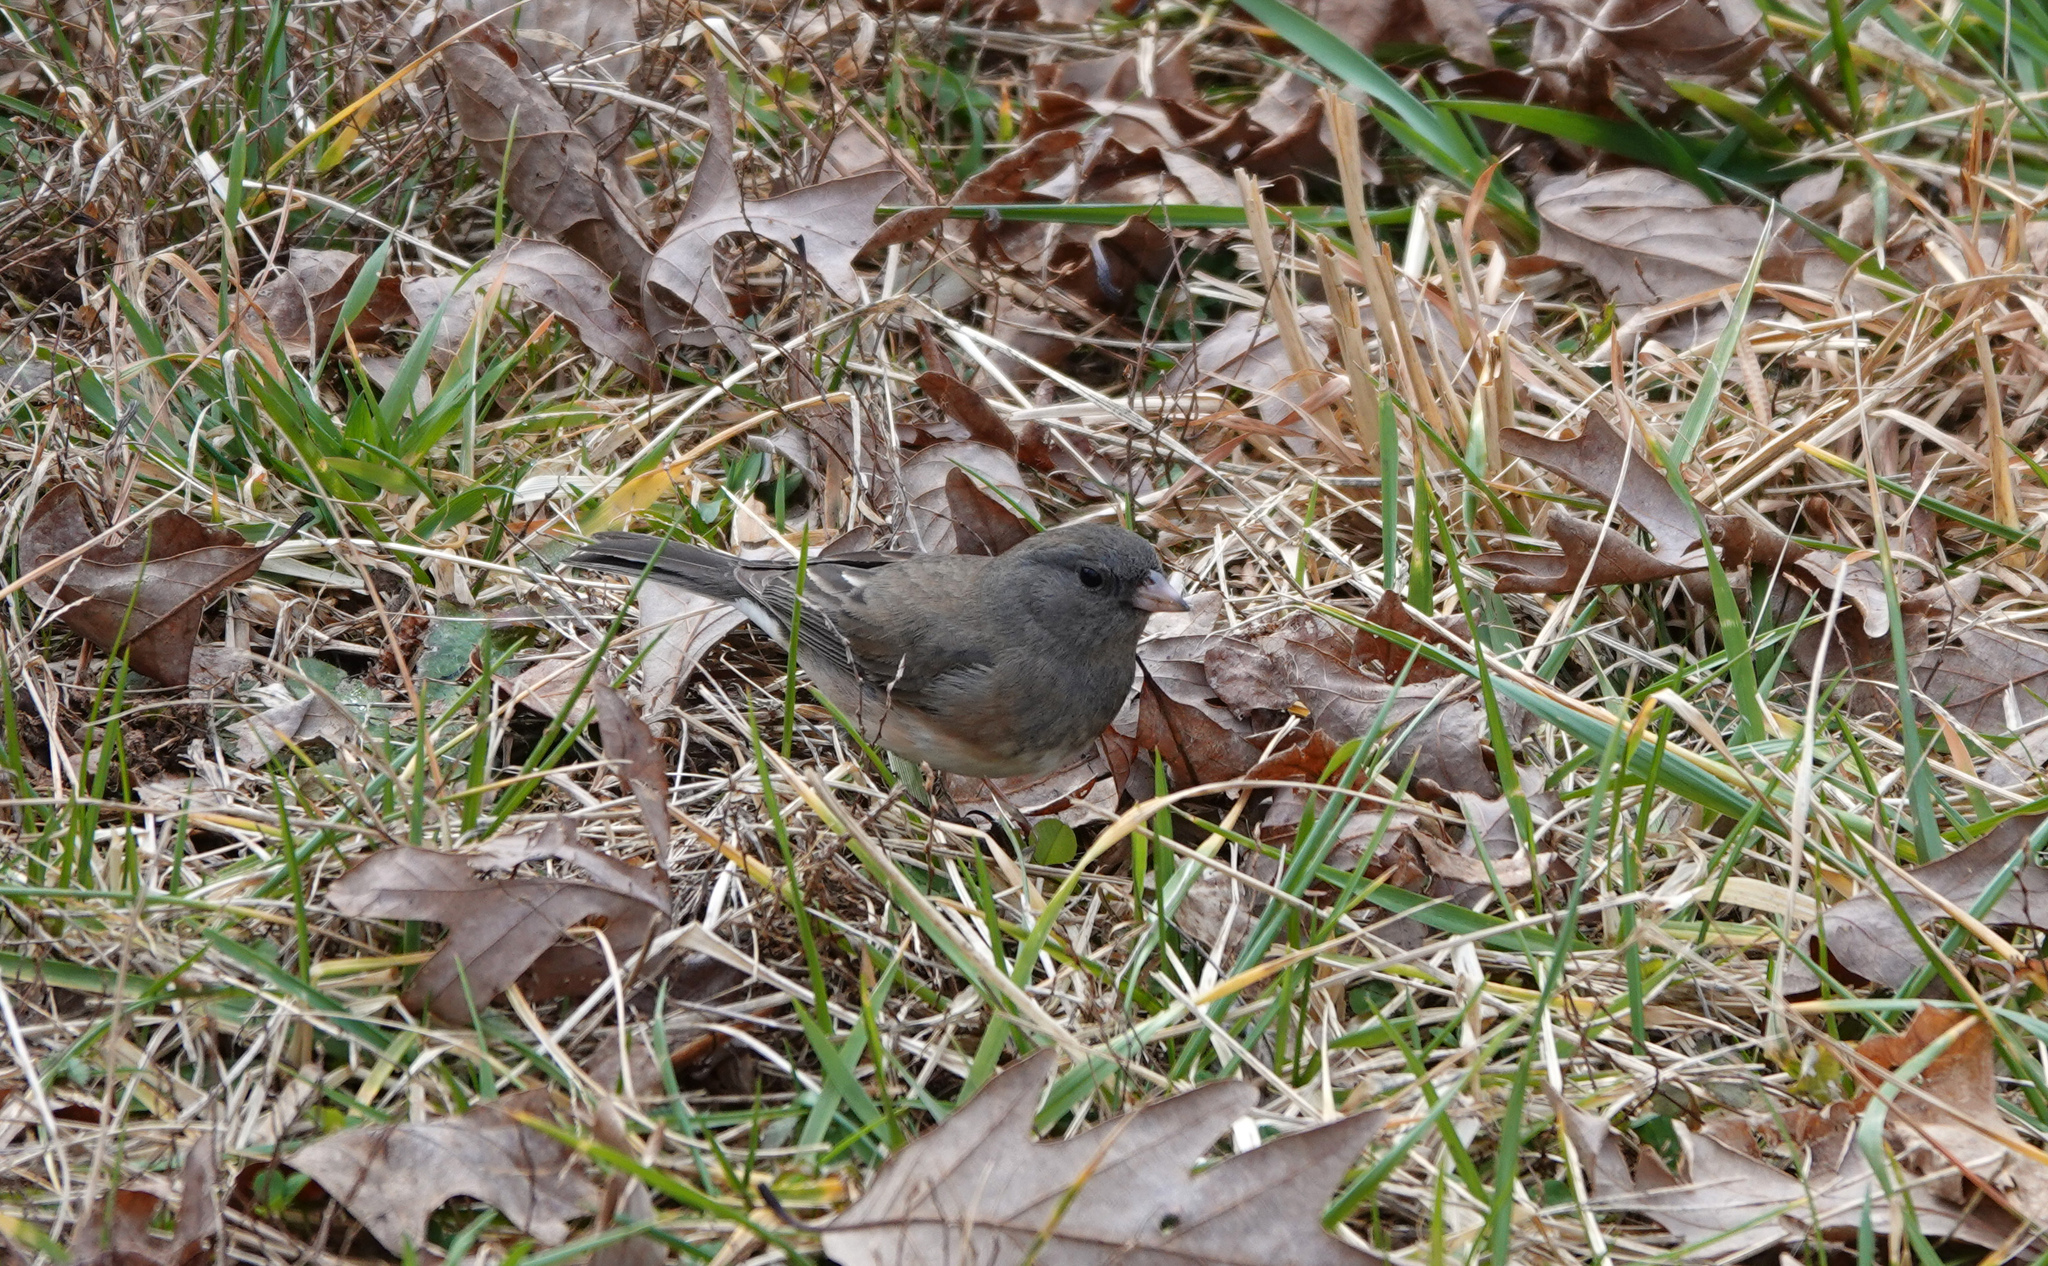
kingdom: Animalia
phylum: Chordata
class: Aves
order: Passeriformes
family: Passerellidae
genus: Junco
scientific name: Junco hyemalis
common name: Dark-eyed junco
